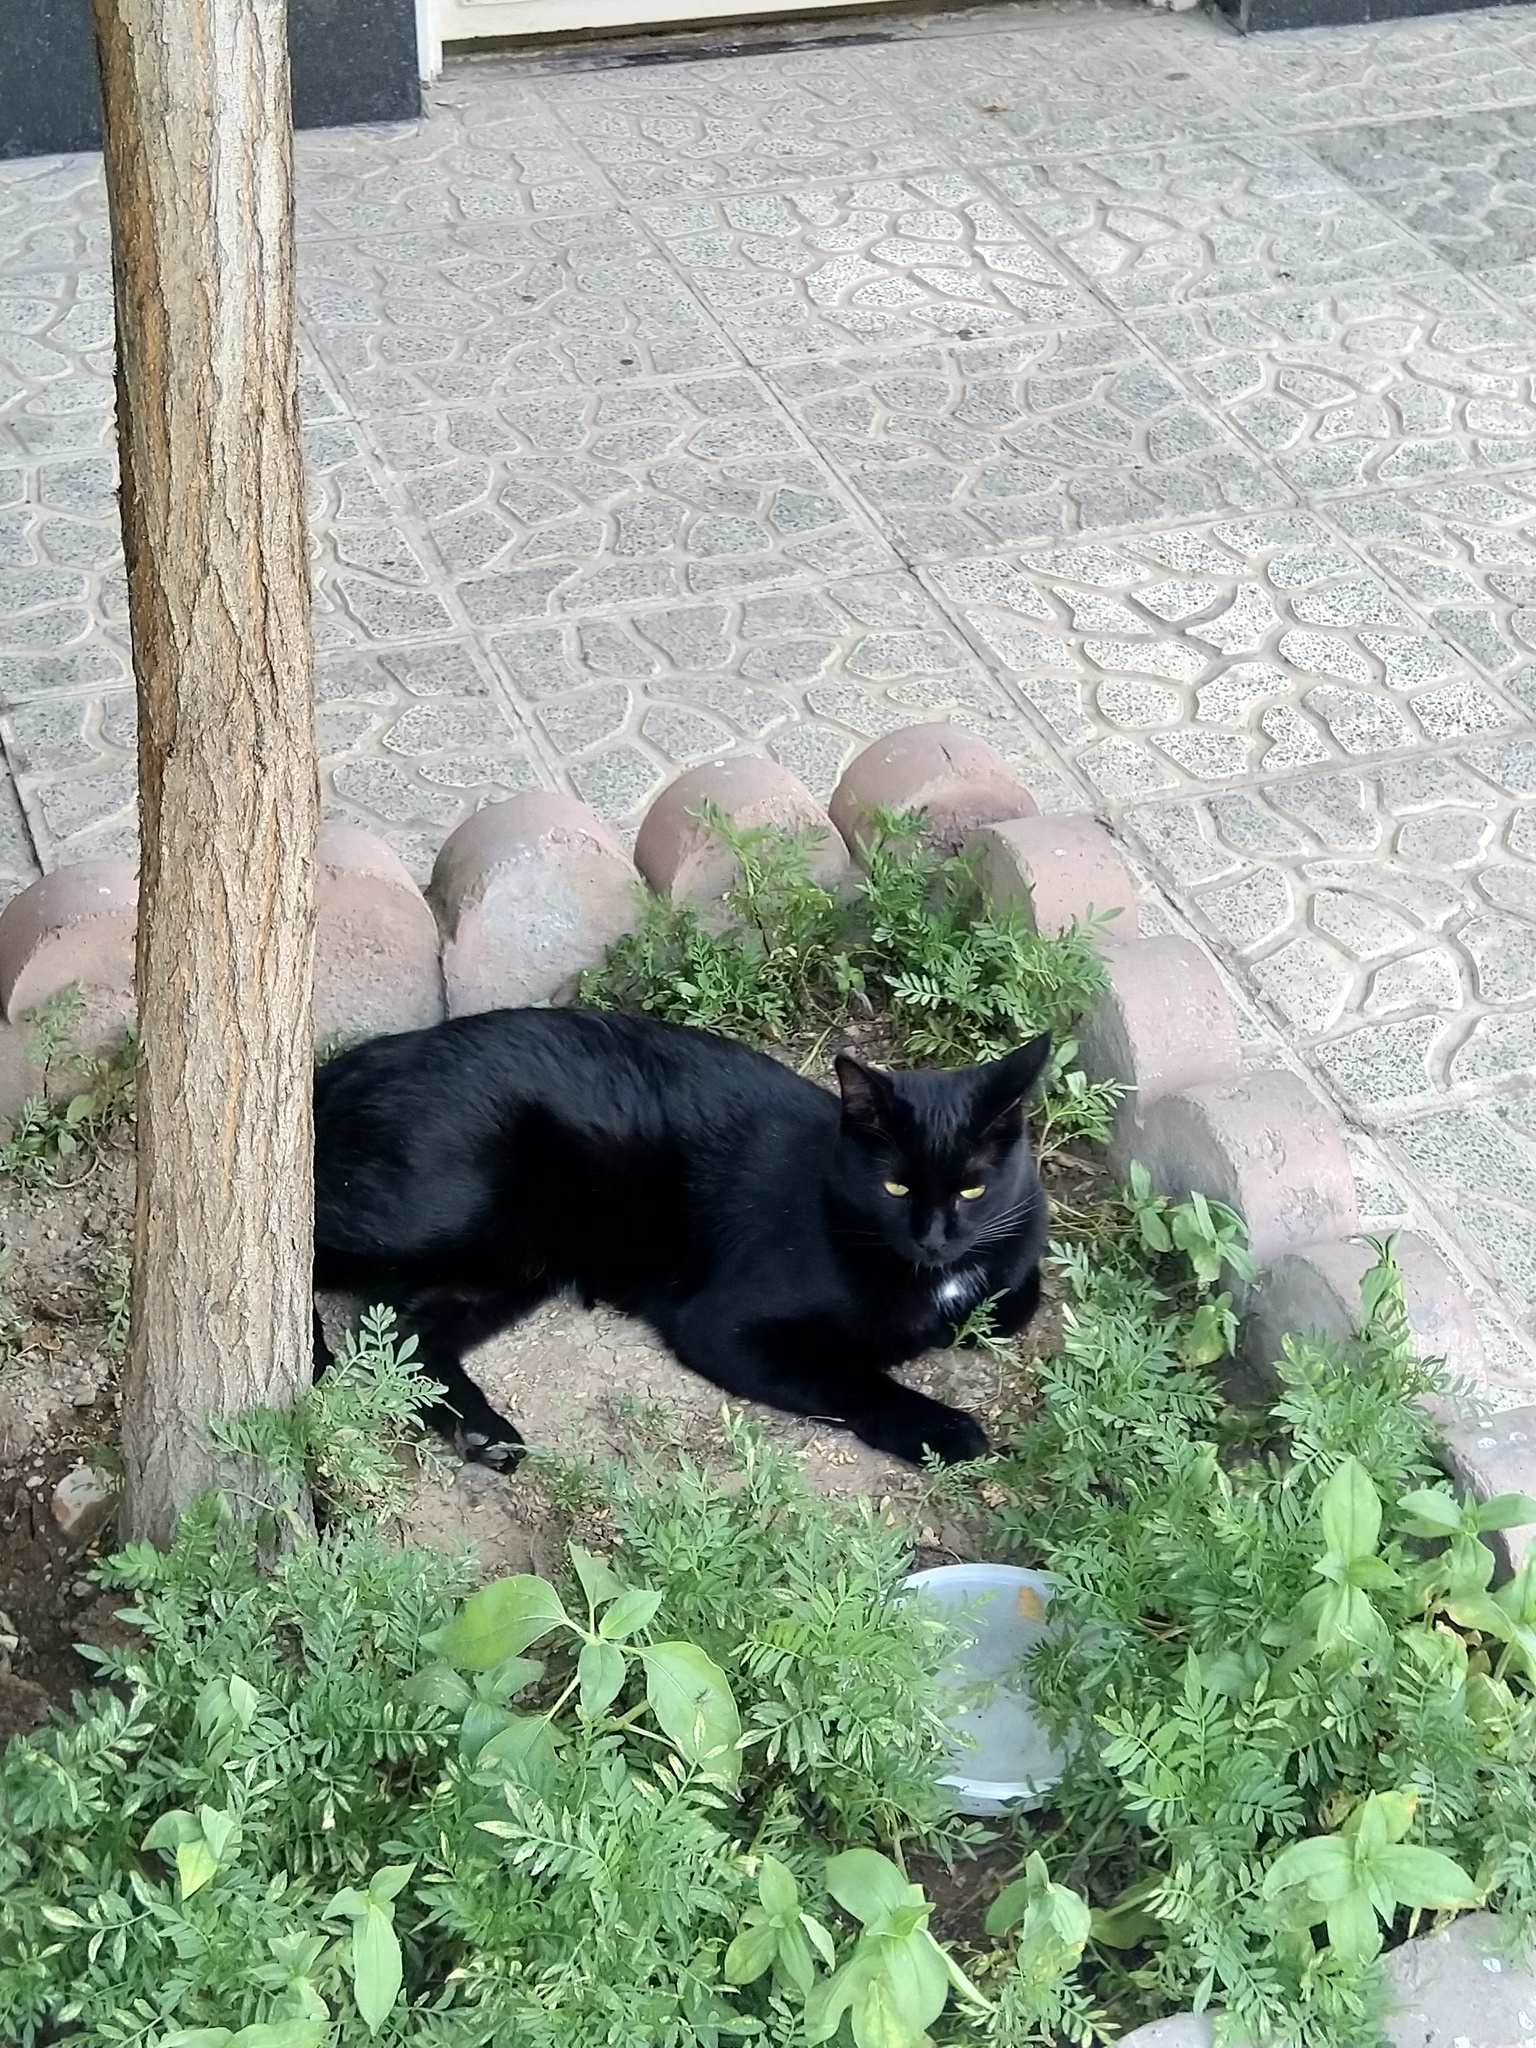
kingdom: Animalia
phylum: Chordata
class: Mammalia
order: Carnivora
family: Felidae
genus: Felis
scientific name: Felis catus
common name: Domestic cat
